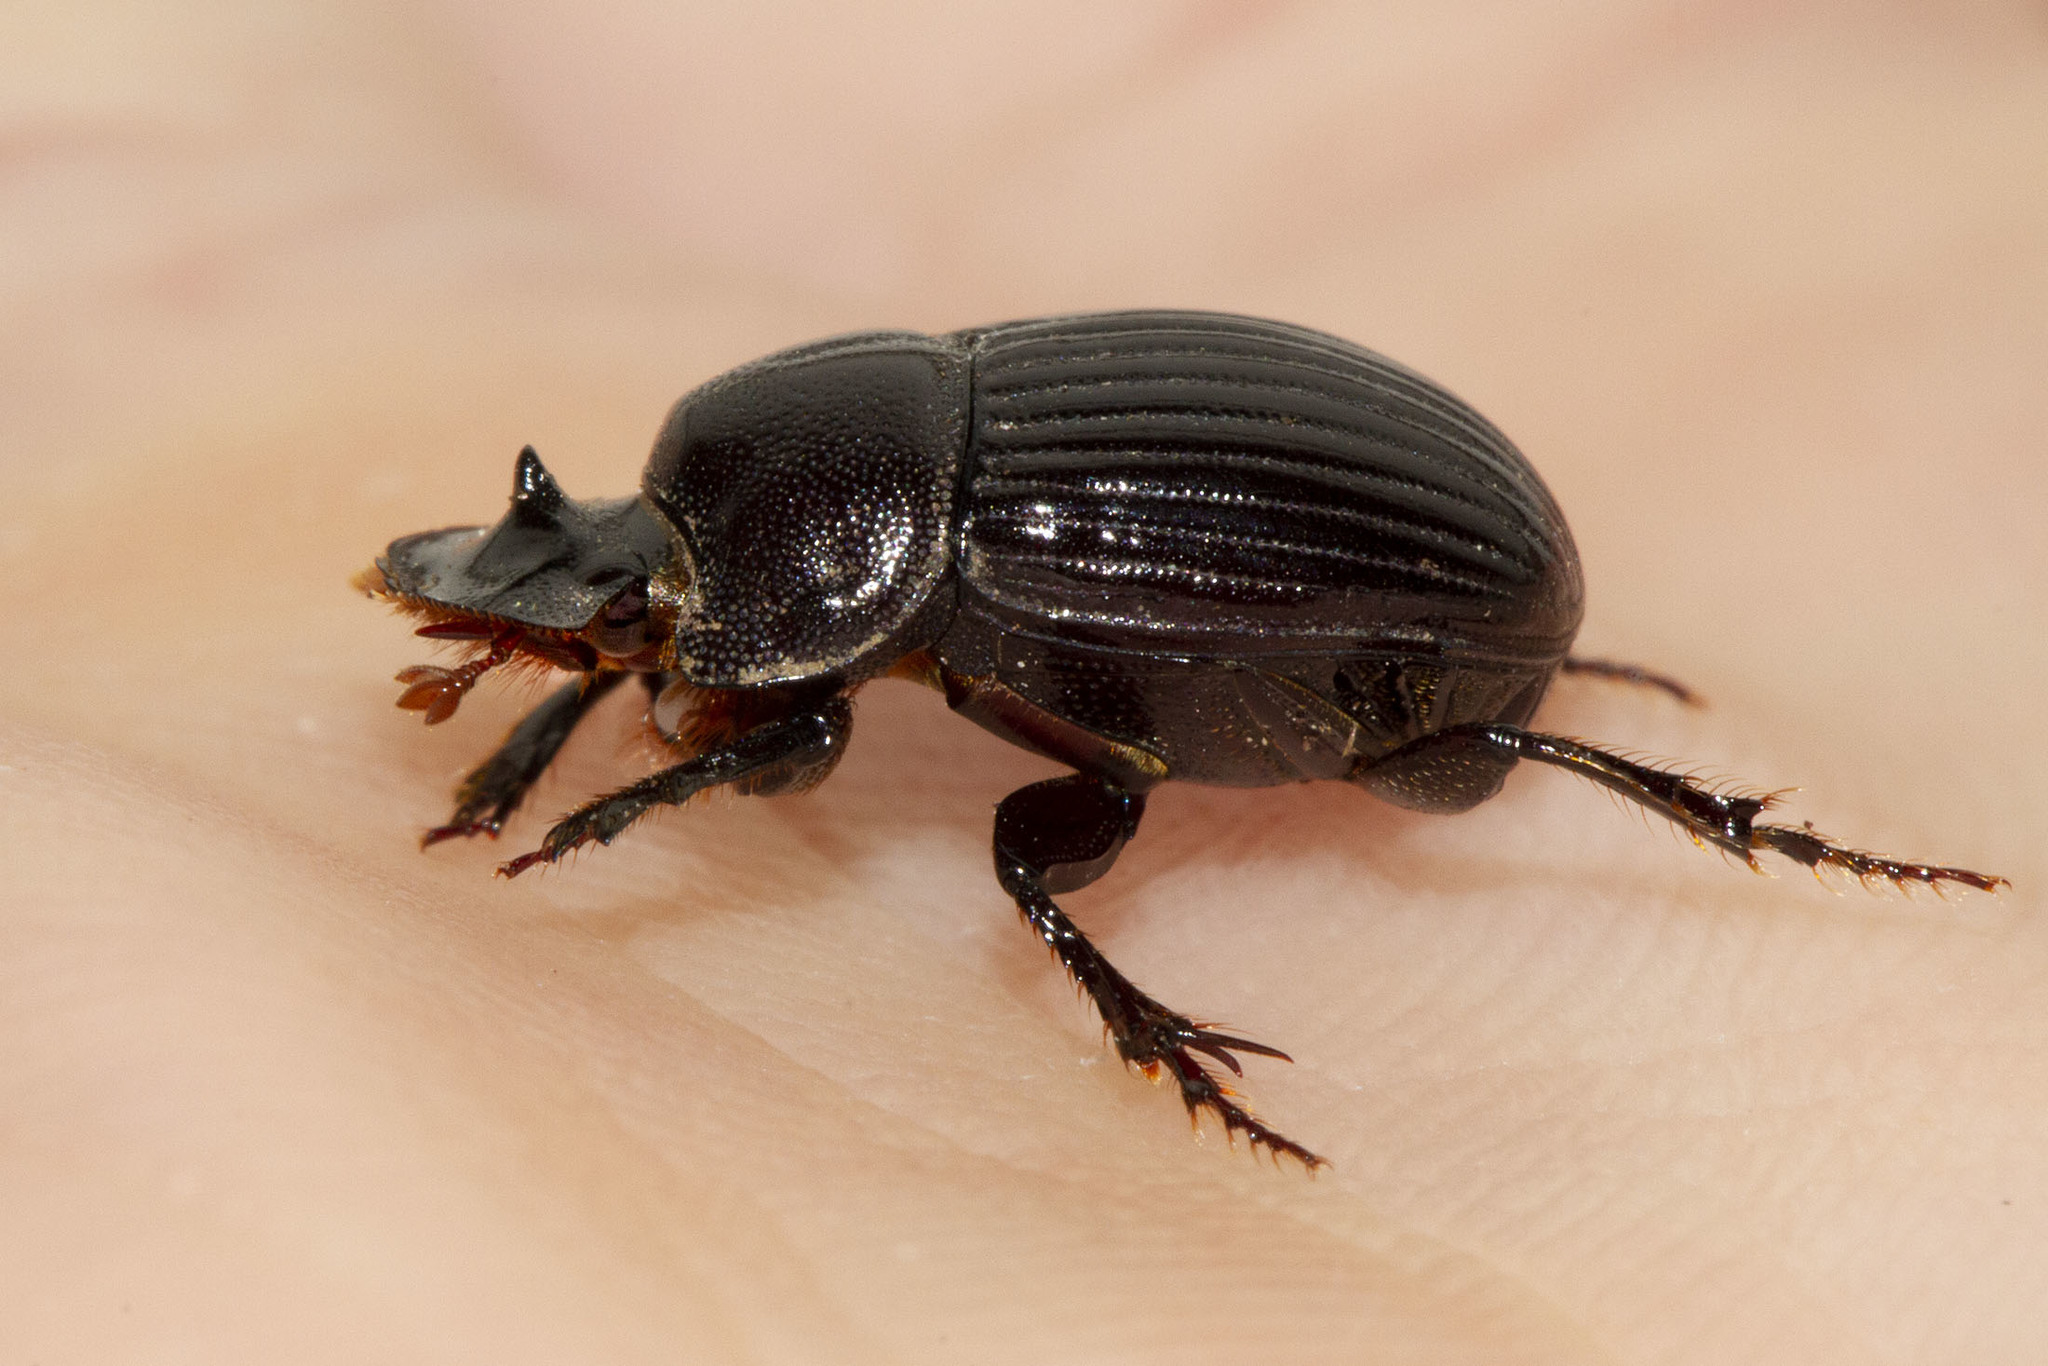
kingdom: Animalia
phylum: Arthropoda
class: Insecta
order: Coleoptera
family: Scarabaeidae
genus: Copris
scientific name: Copris minutus
